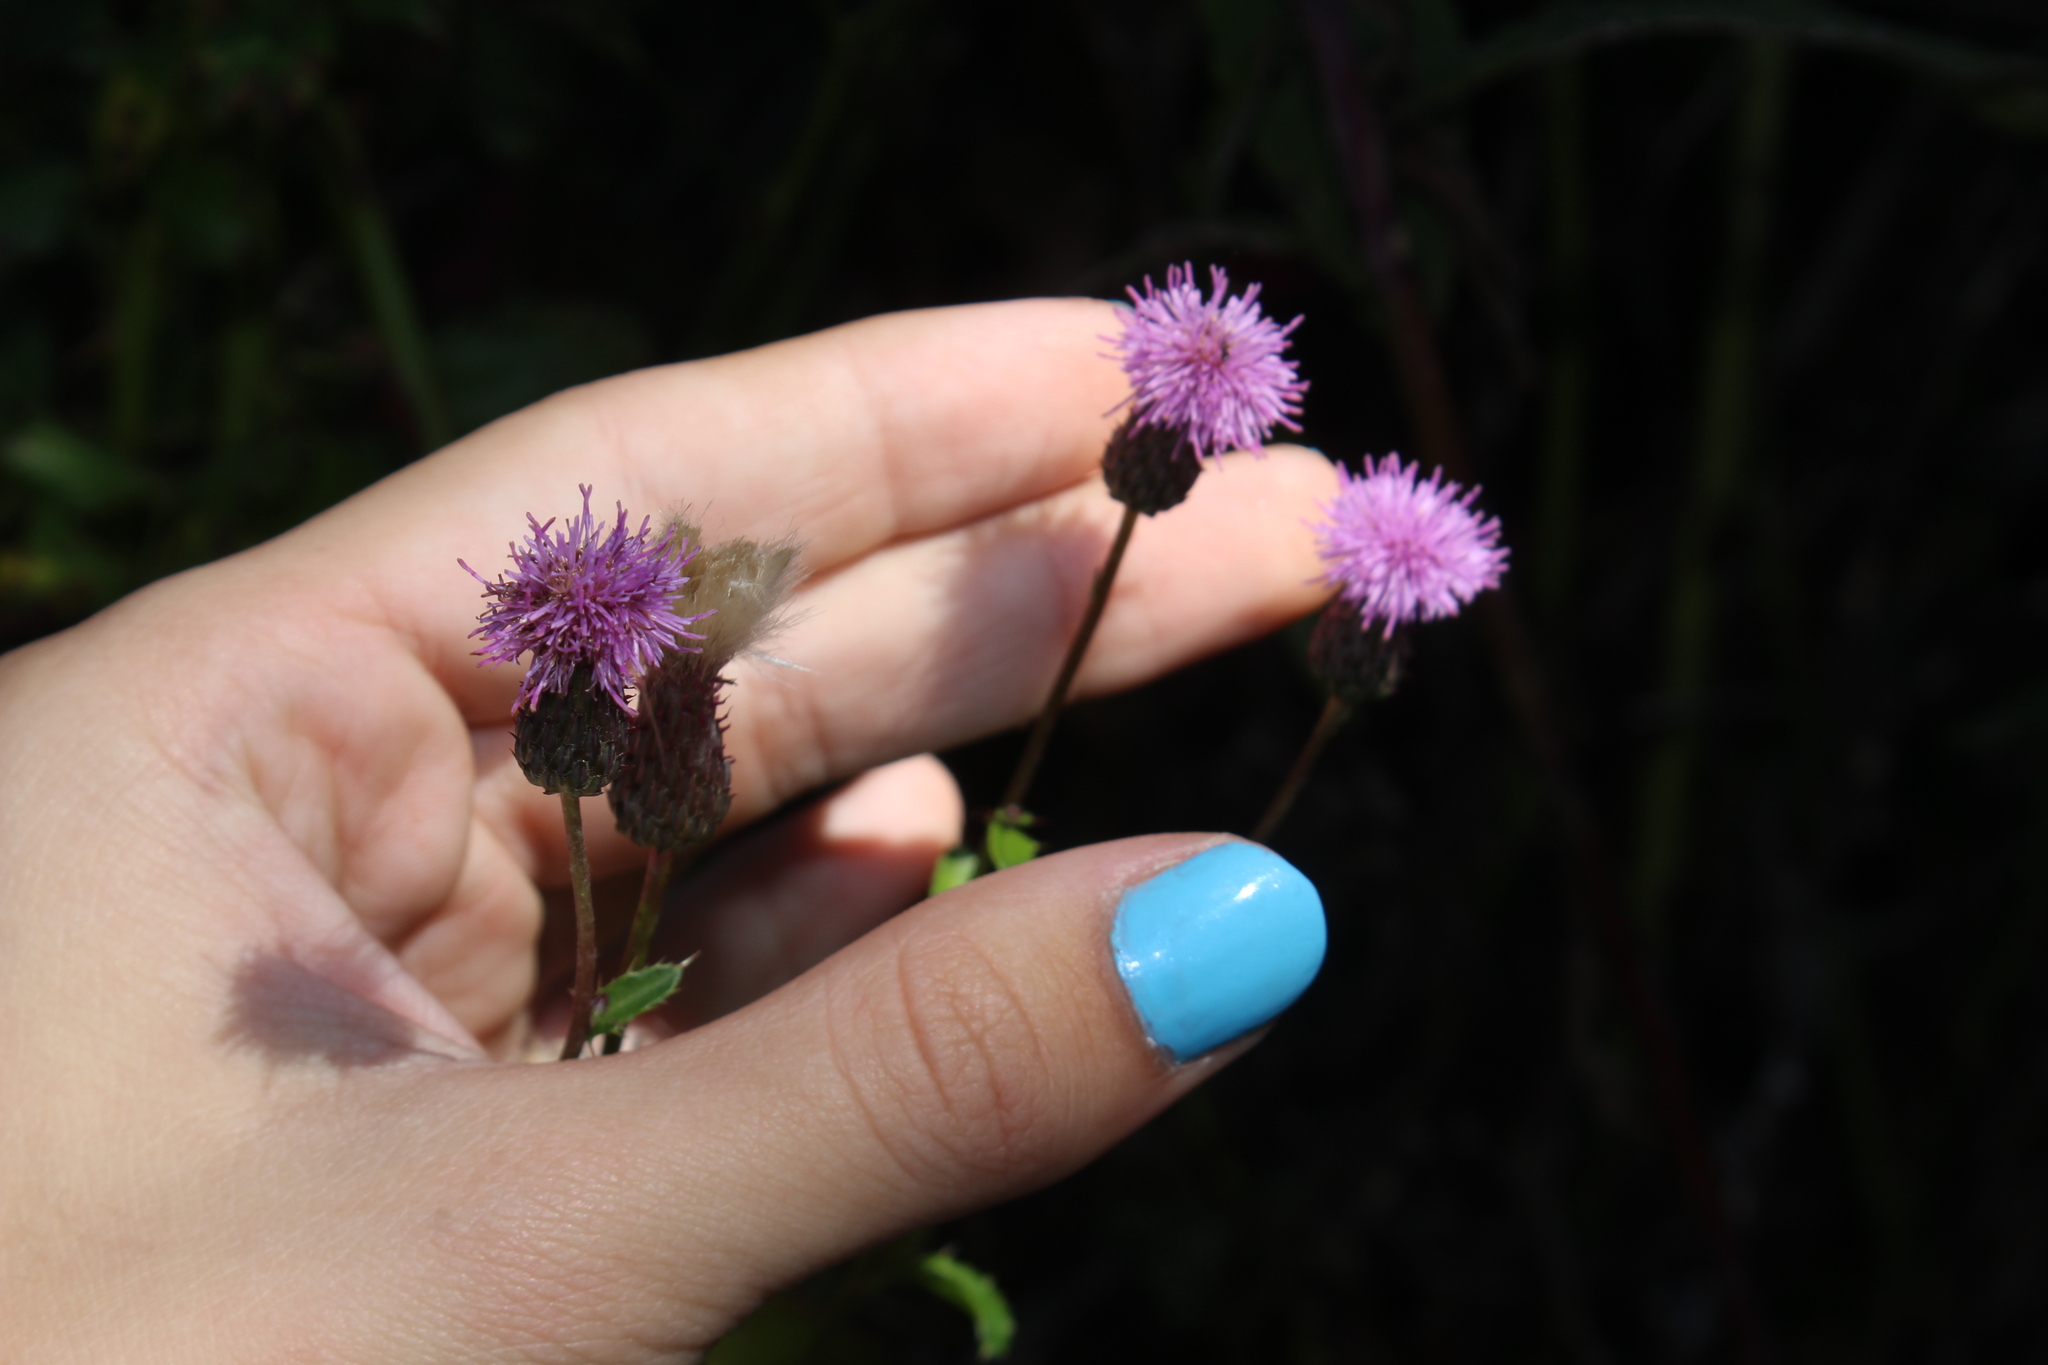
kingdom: Plantae
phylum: Tracheophyta
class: Magnoliopsida
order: Asterales
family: Asteraceae
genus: Cirsium
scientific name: Cirsium arvense
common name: Creeping thistle
